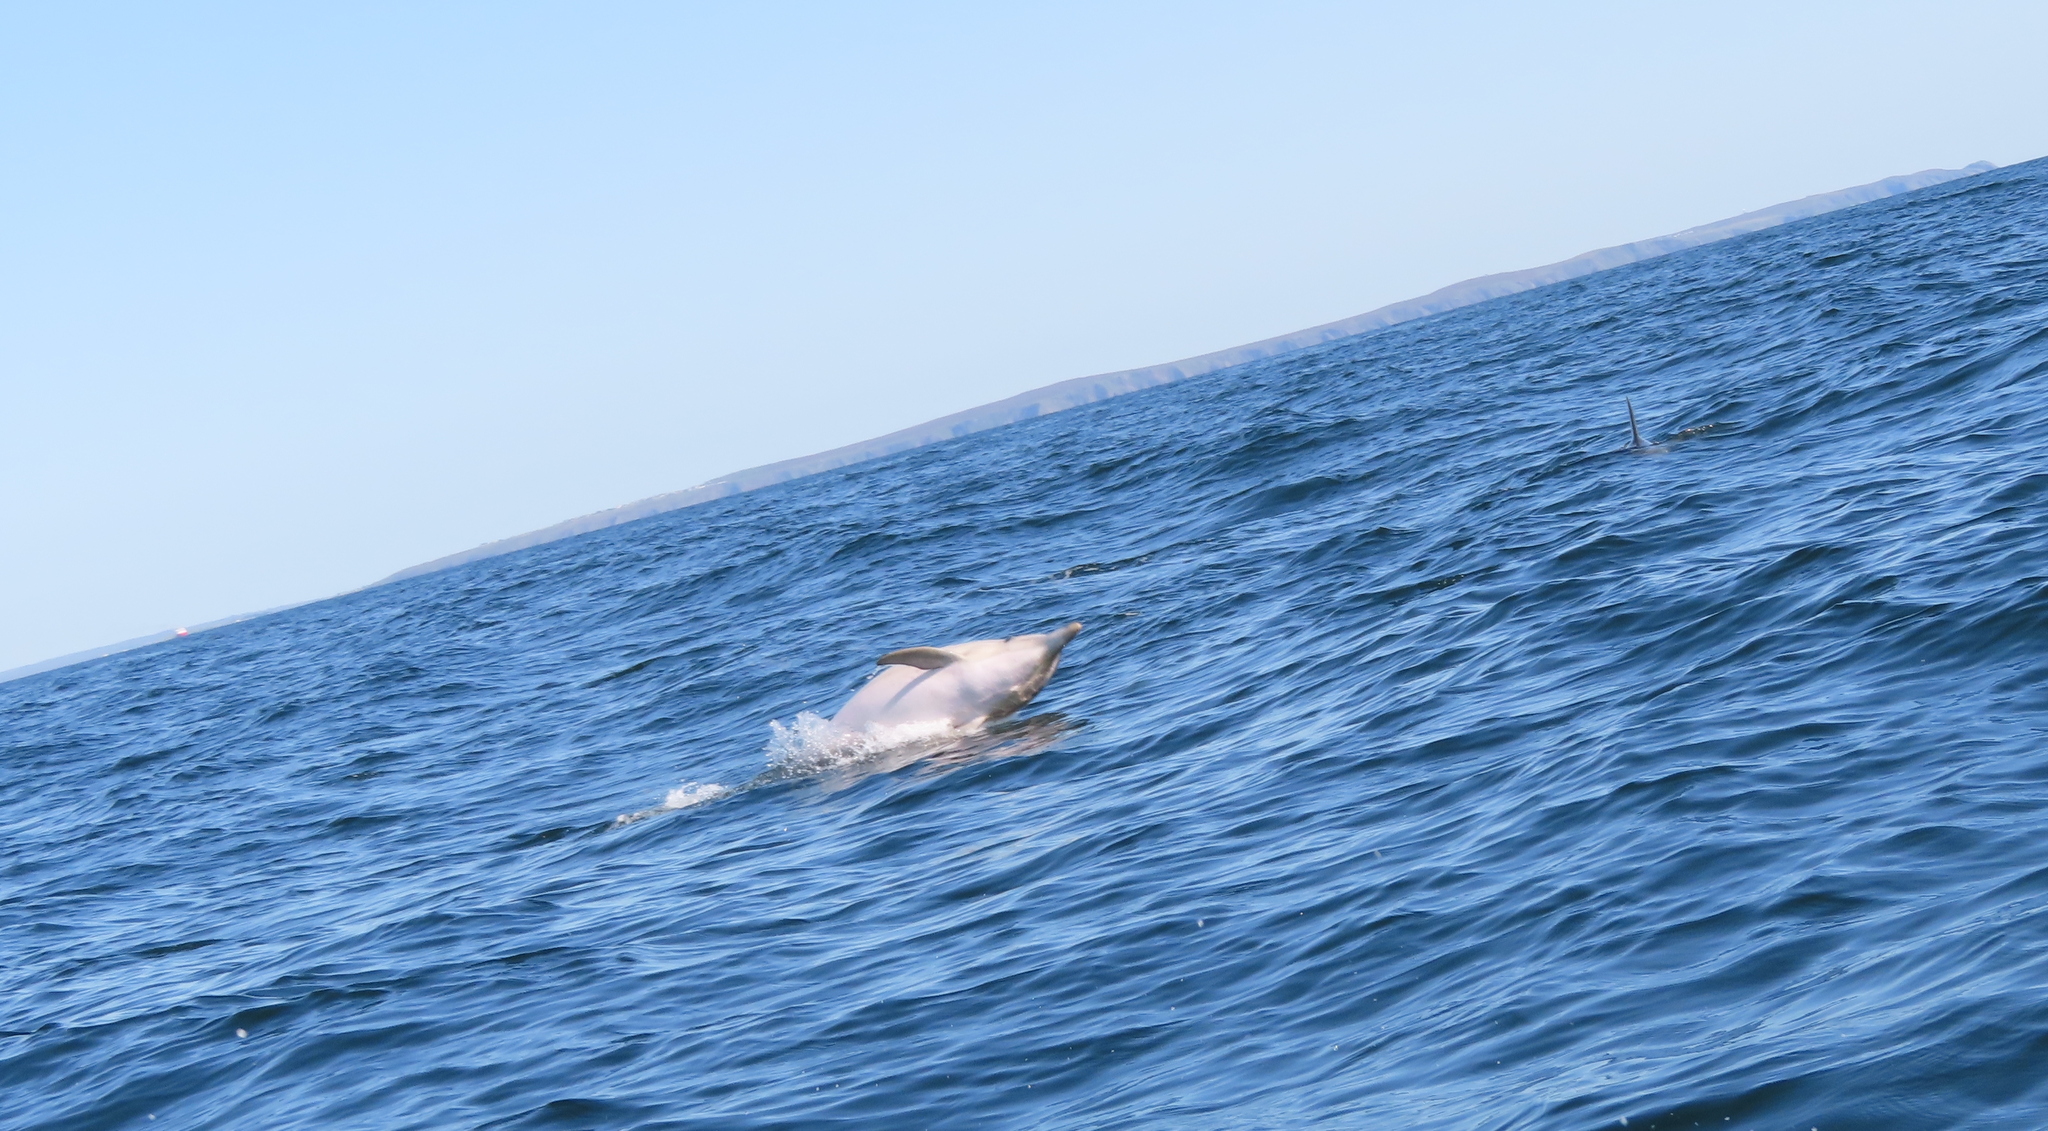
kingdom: Animalia
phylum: Chordata
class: Mammalia
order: Cetacea
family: Delphinidae
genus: Delphinus
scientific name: Delphinus delphis
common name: Common dolphin
